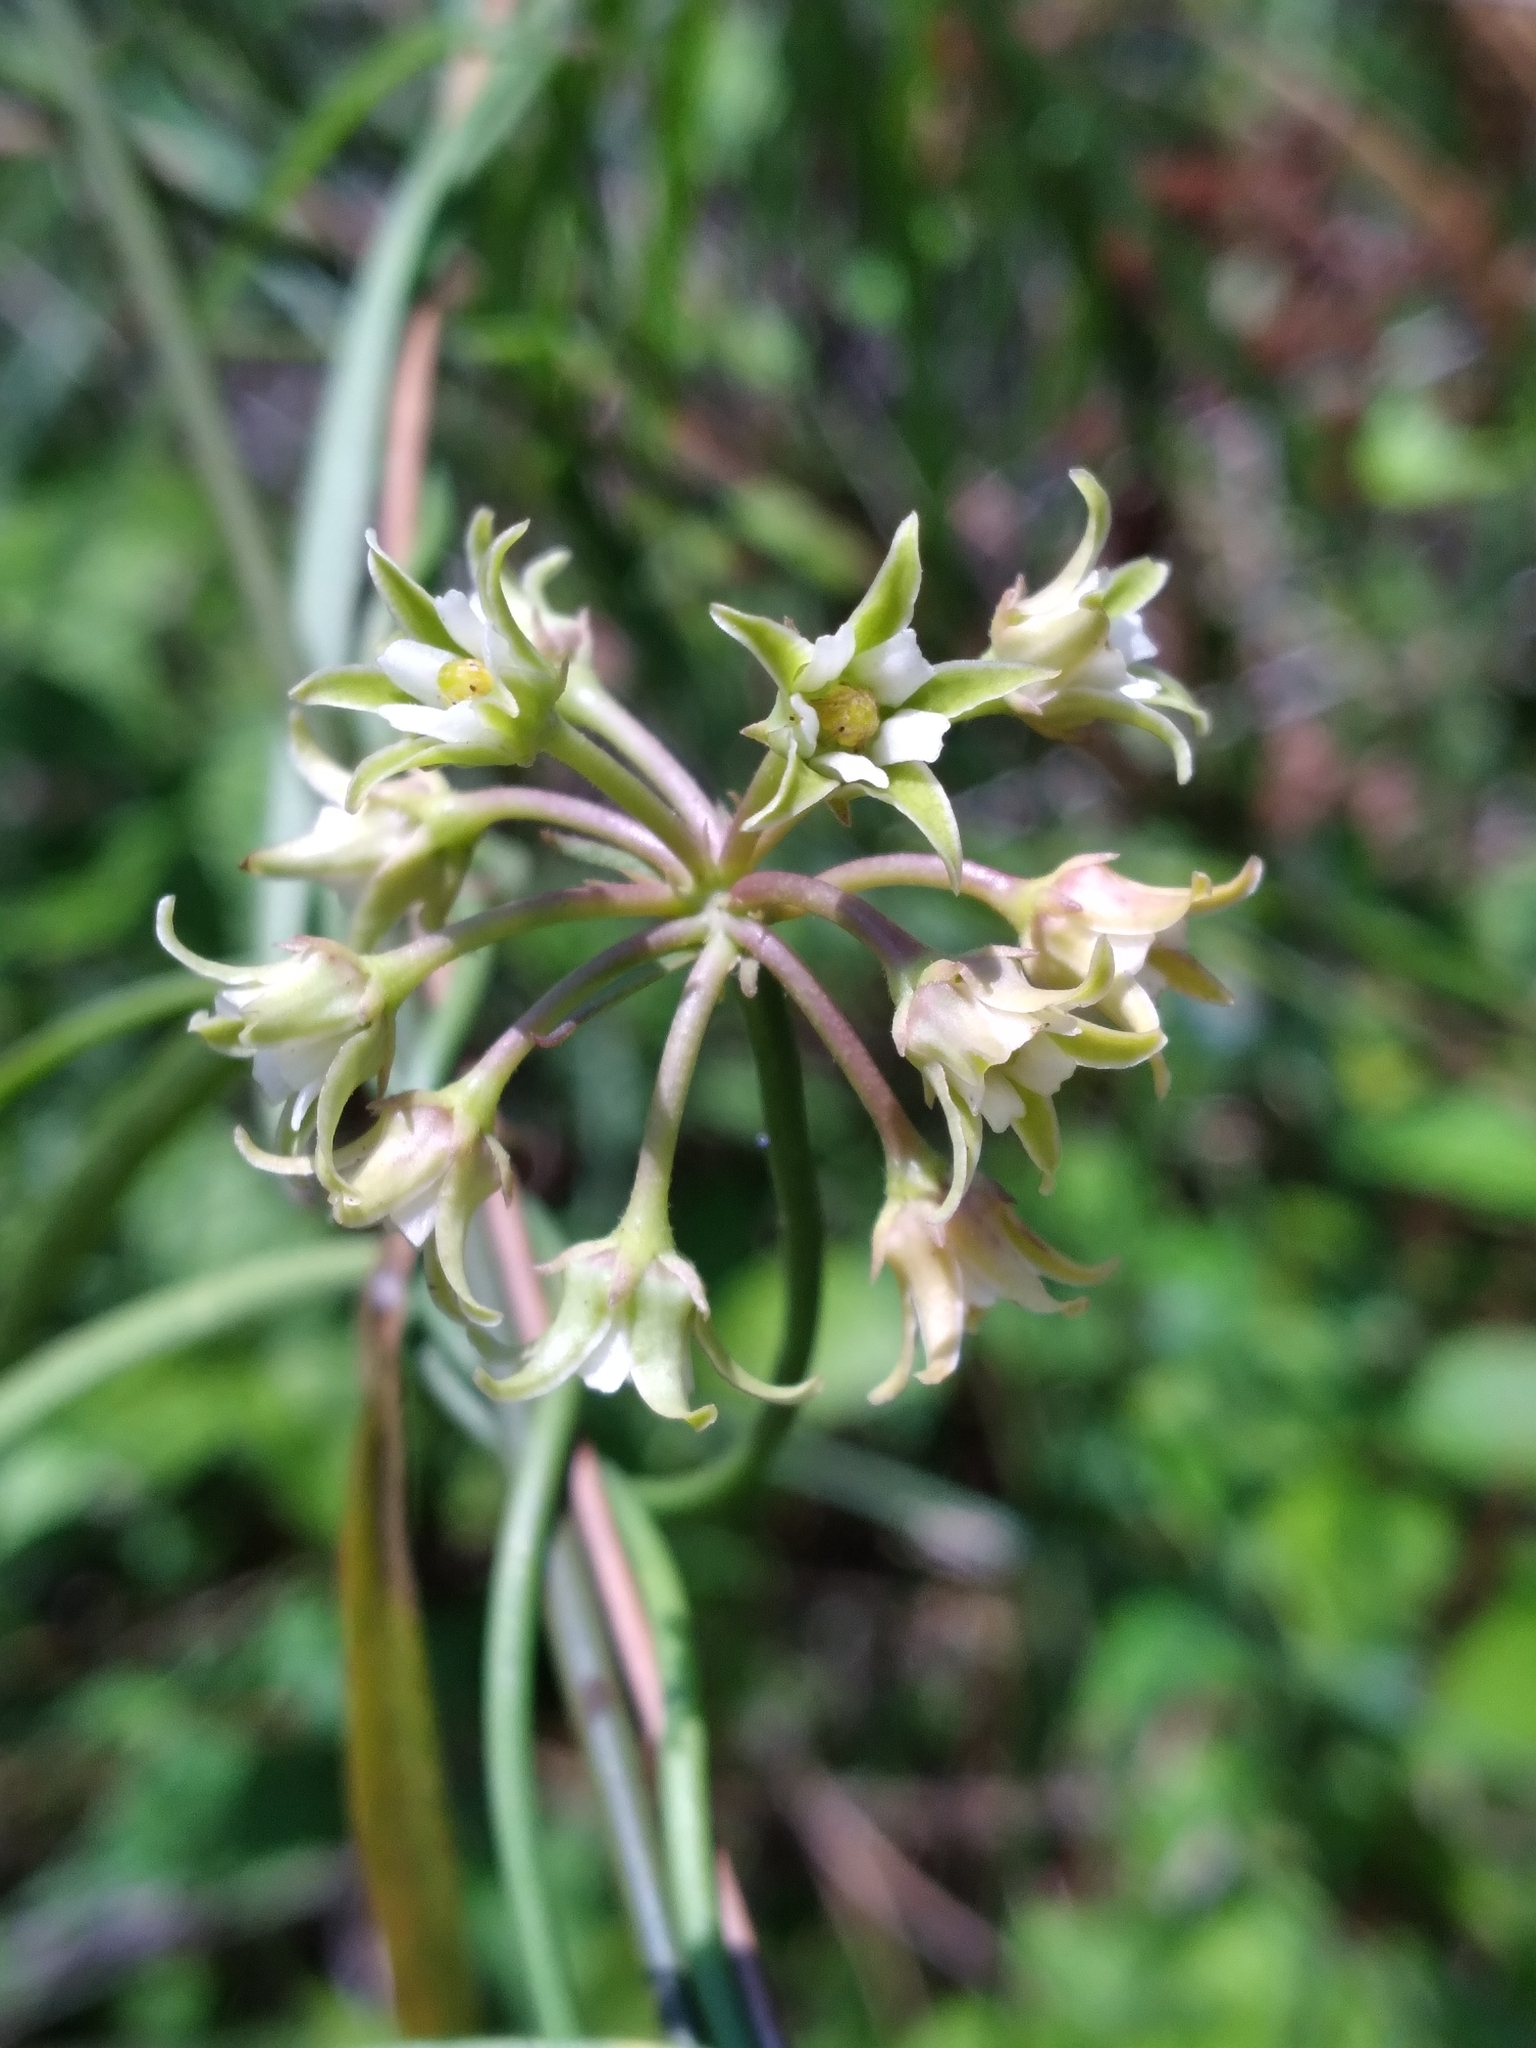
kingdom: Plantae
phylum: Tracheophyta
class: Magnoliopsida
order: Gentianales
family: Apocynaceae
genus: Pattalias
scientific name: Pattalias
